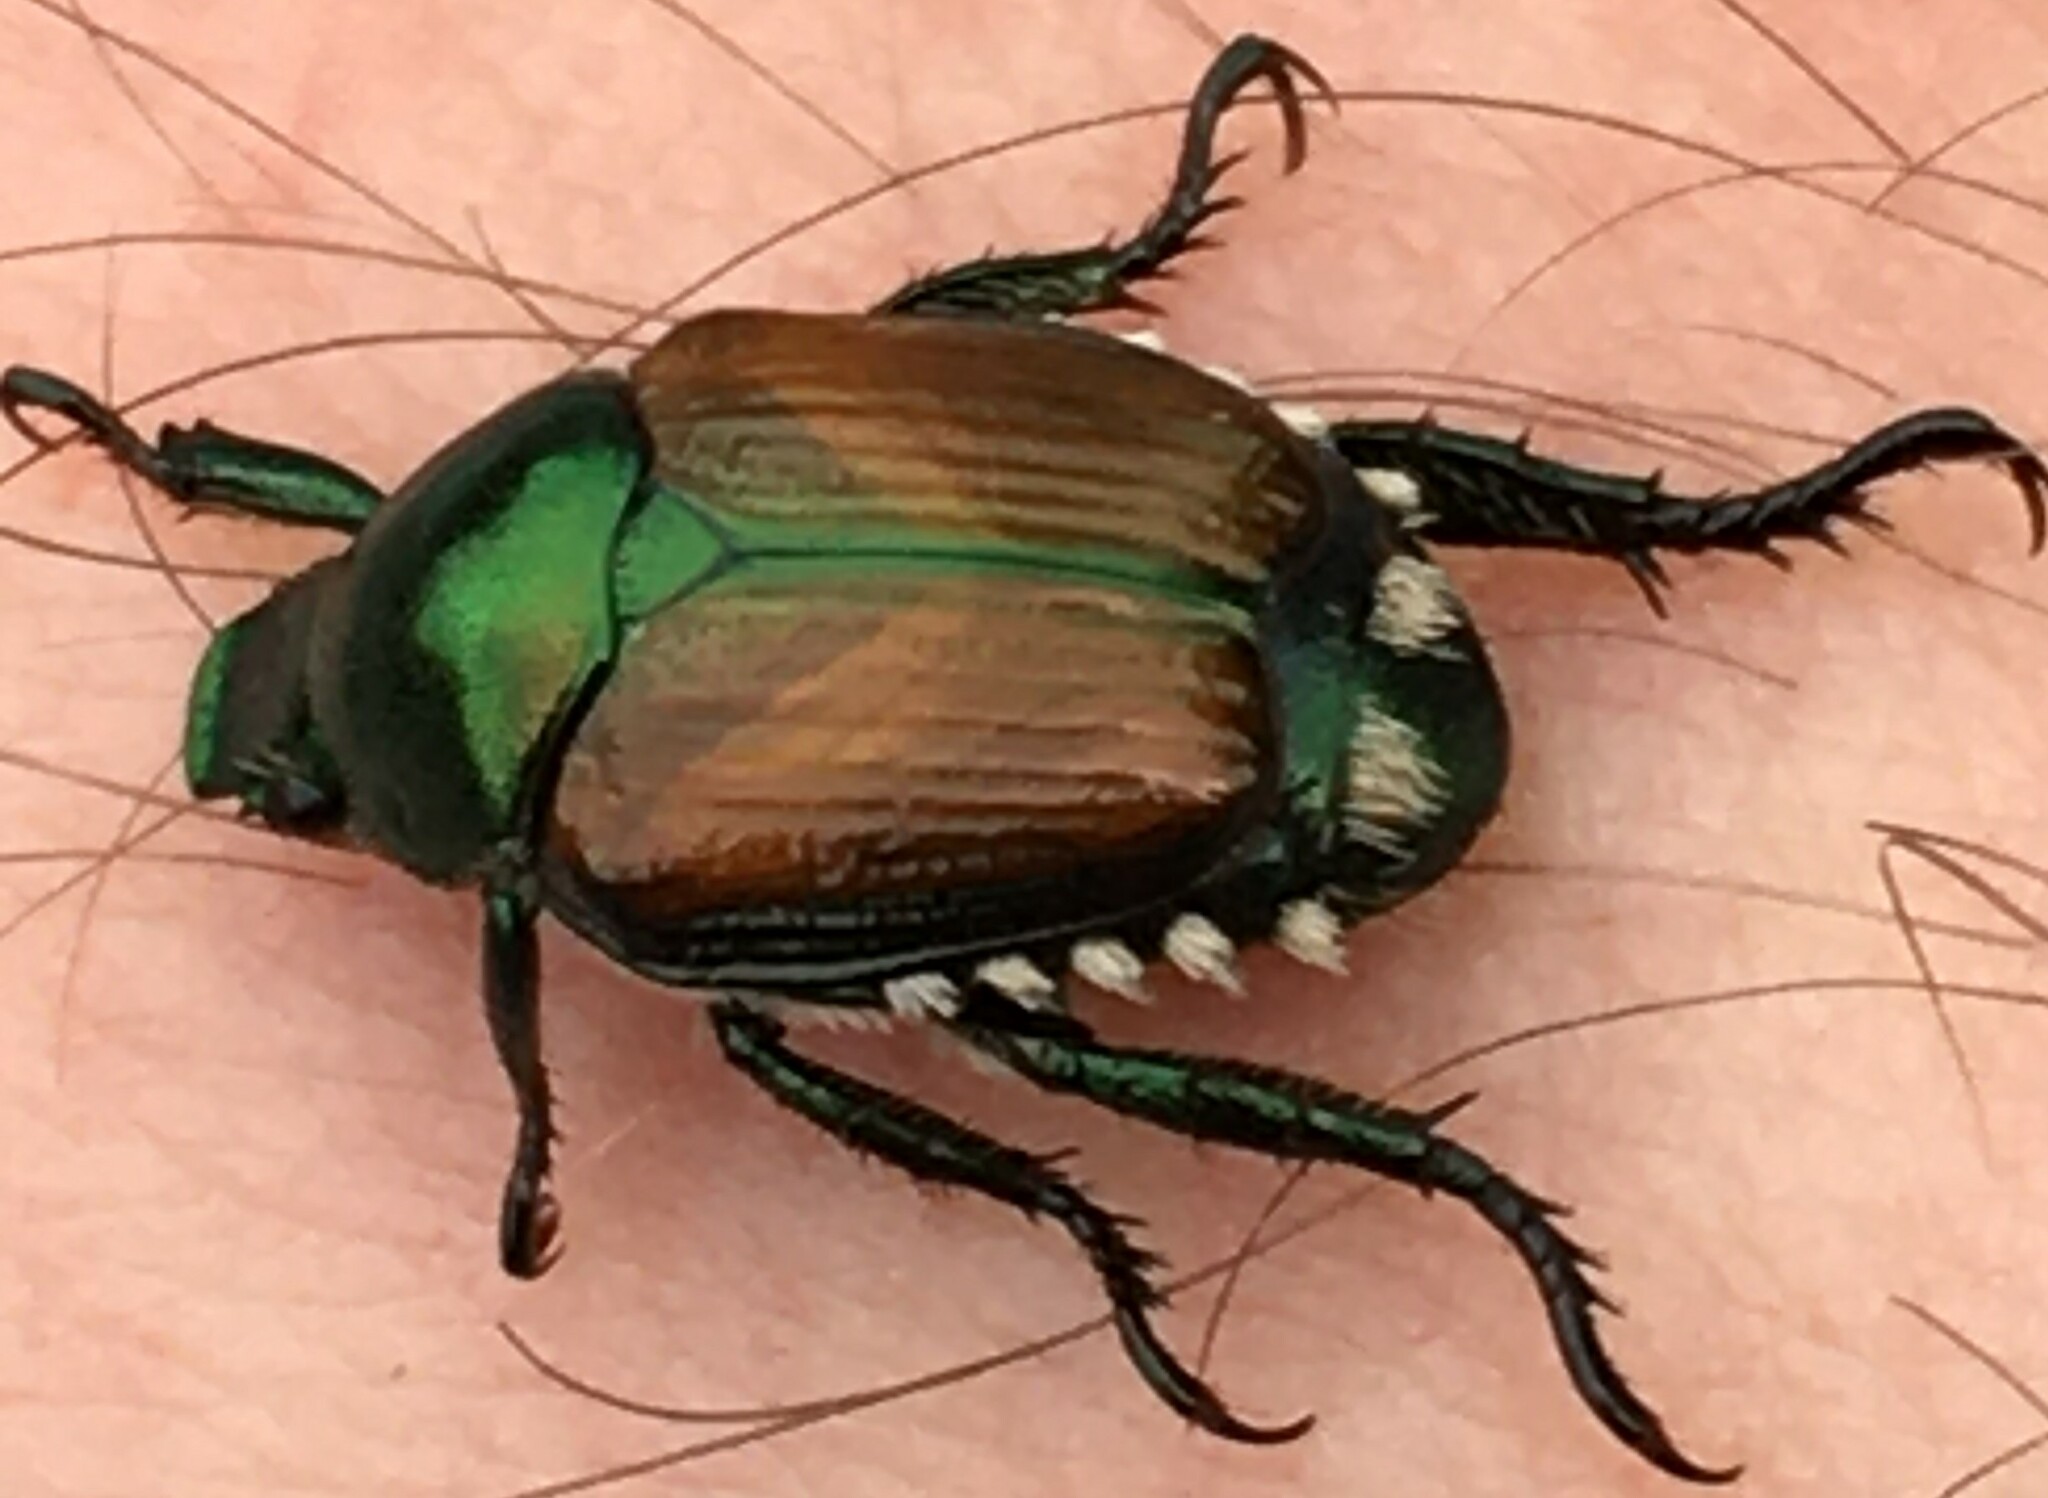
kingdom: Animalia
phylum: Arthropoda
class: Insecta
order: Coleoptera
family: Scarabaeidae
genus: Popillia
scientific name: Popillia japonica
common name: Japanese beetle
